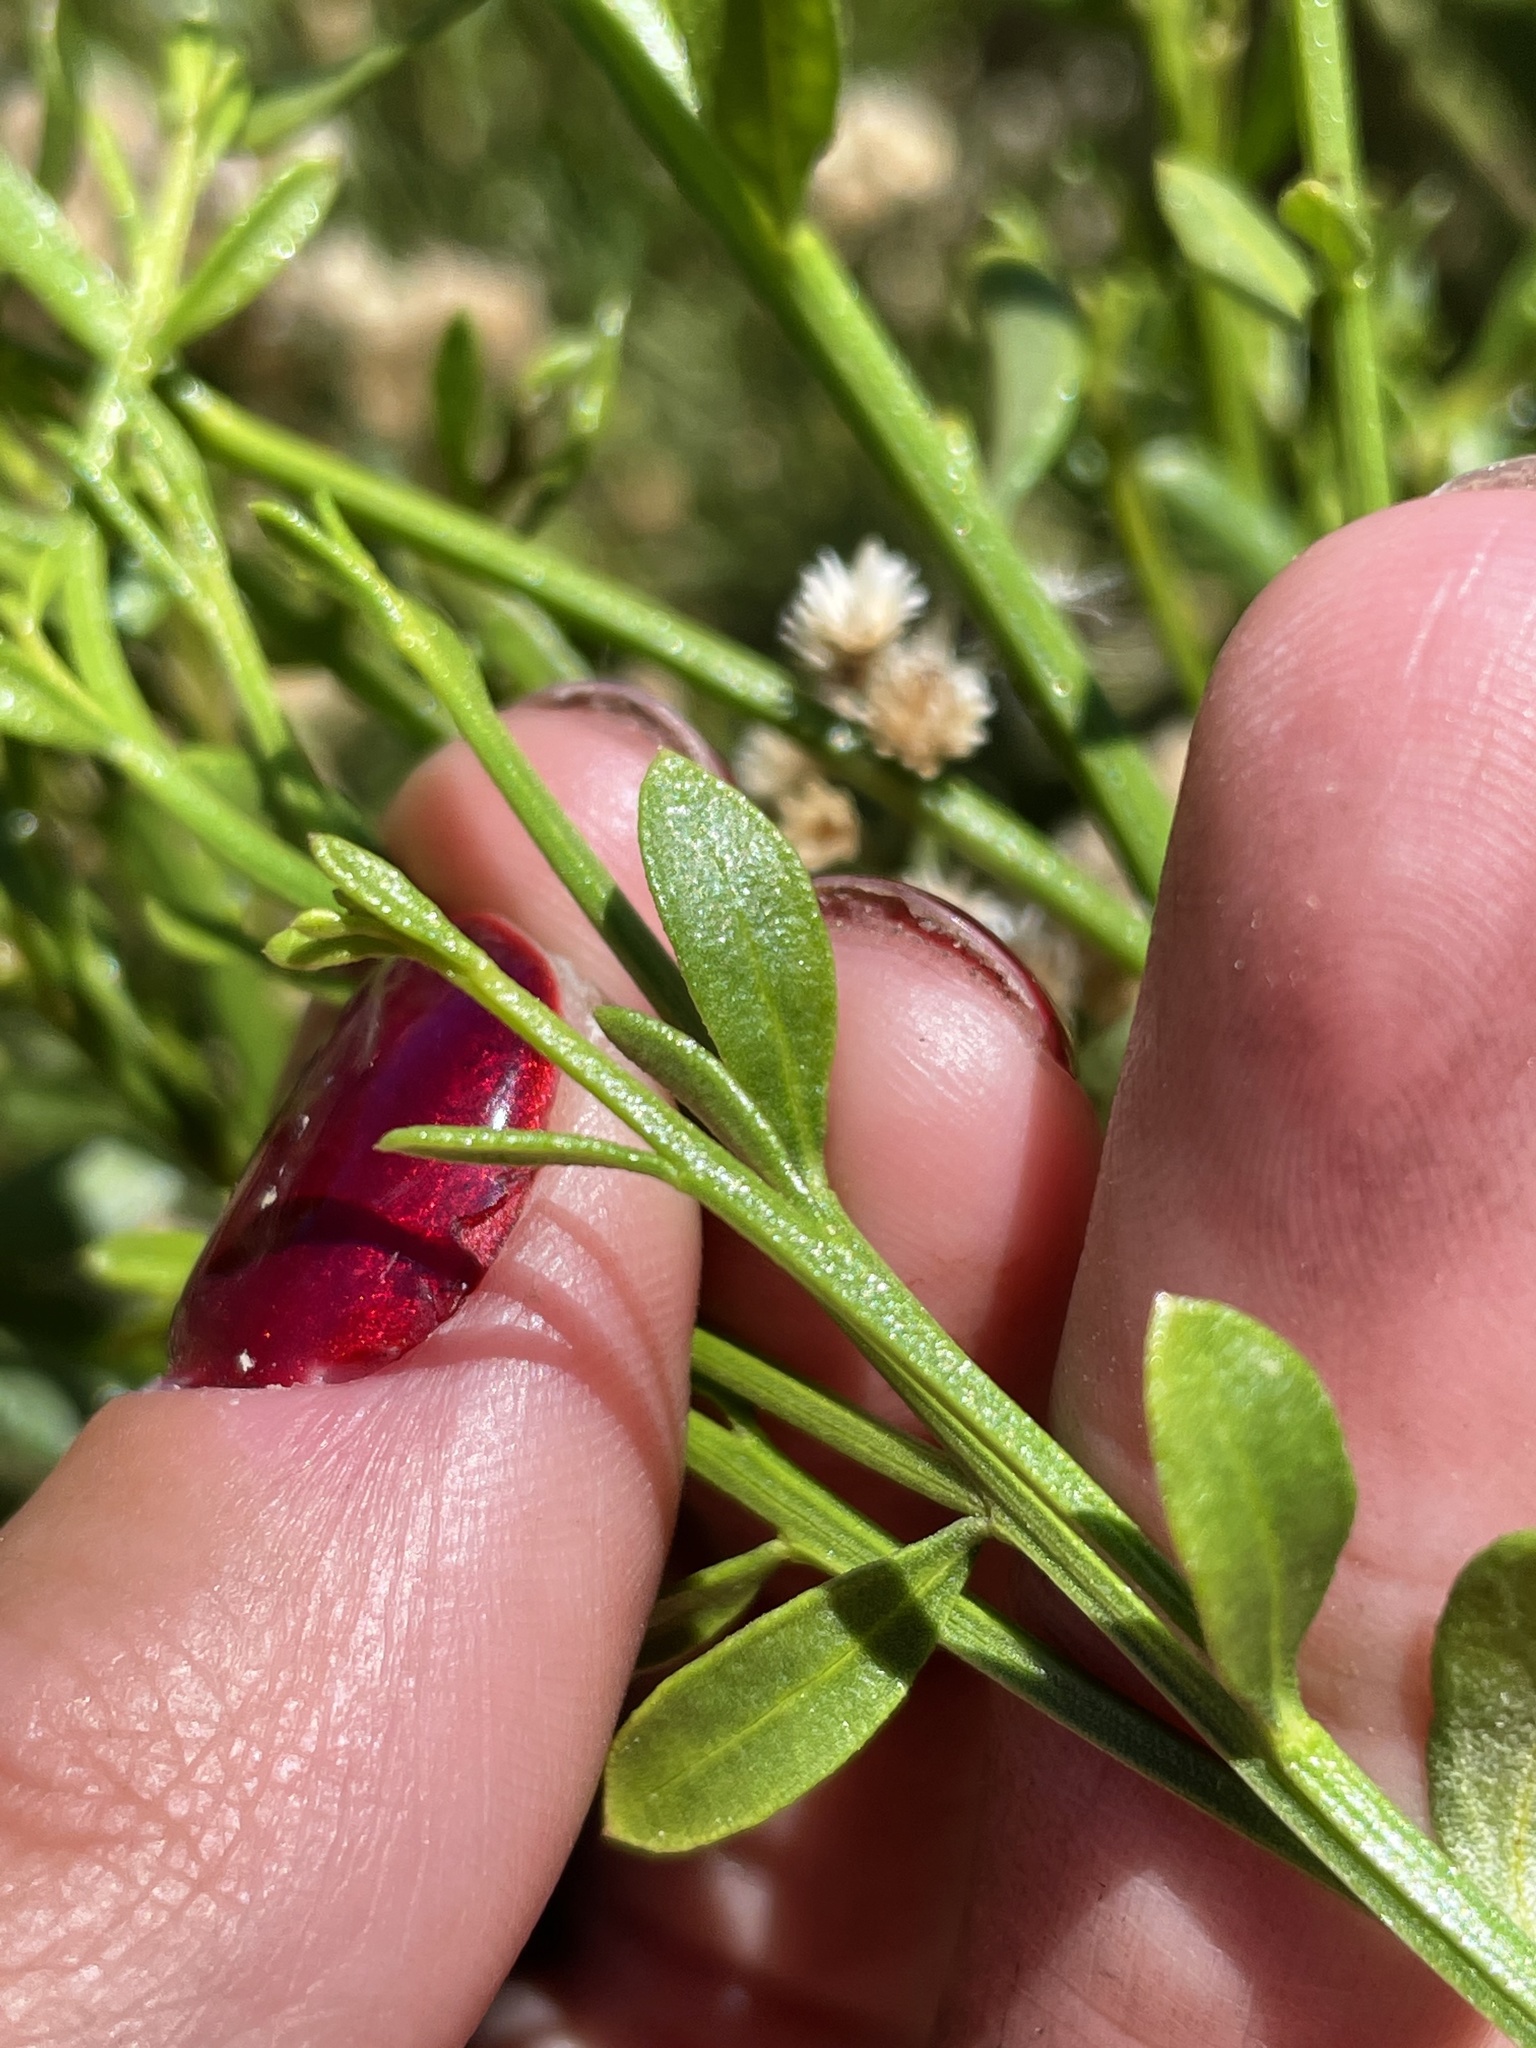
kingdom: Plantae
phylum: Tracheophyta
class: Magnoliopsida
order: Asterales
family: Asteraceae
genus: Baccharis
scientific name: Baccharis sergiloides
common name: Desert baccharis
